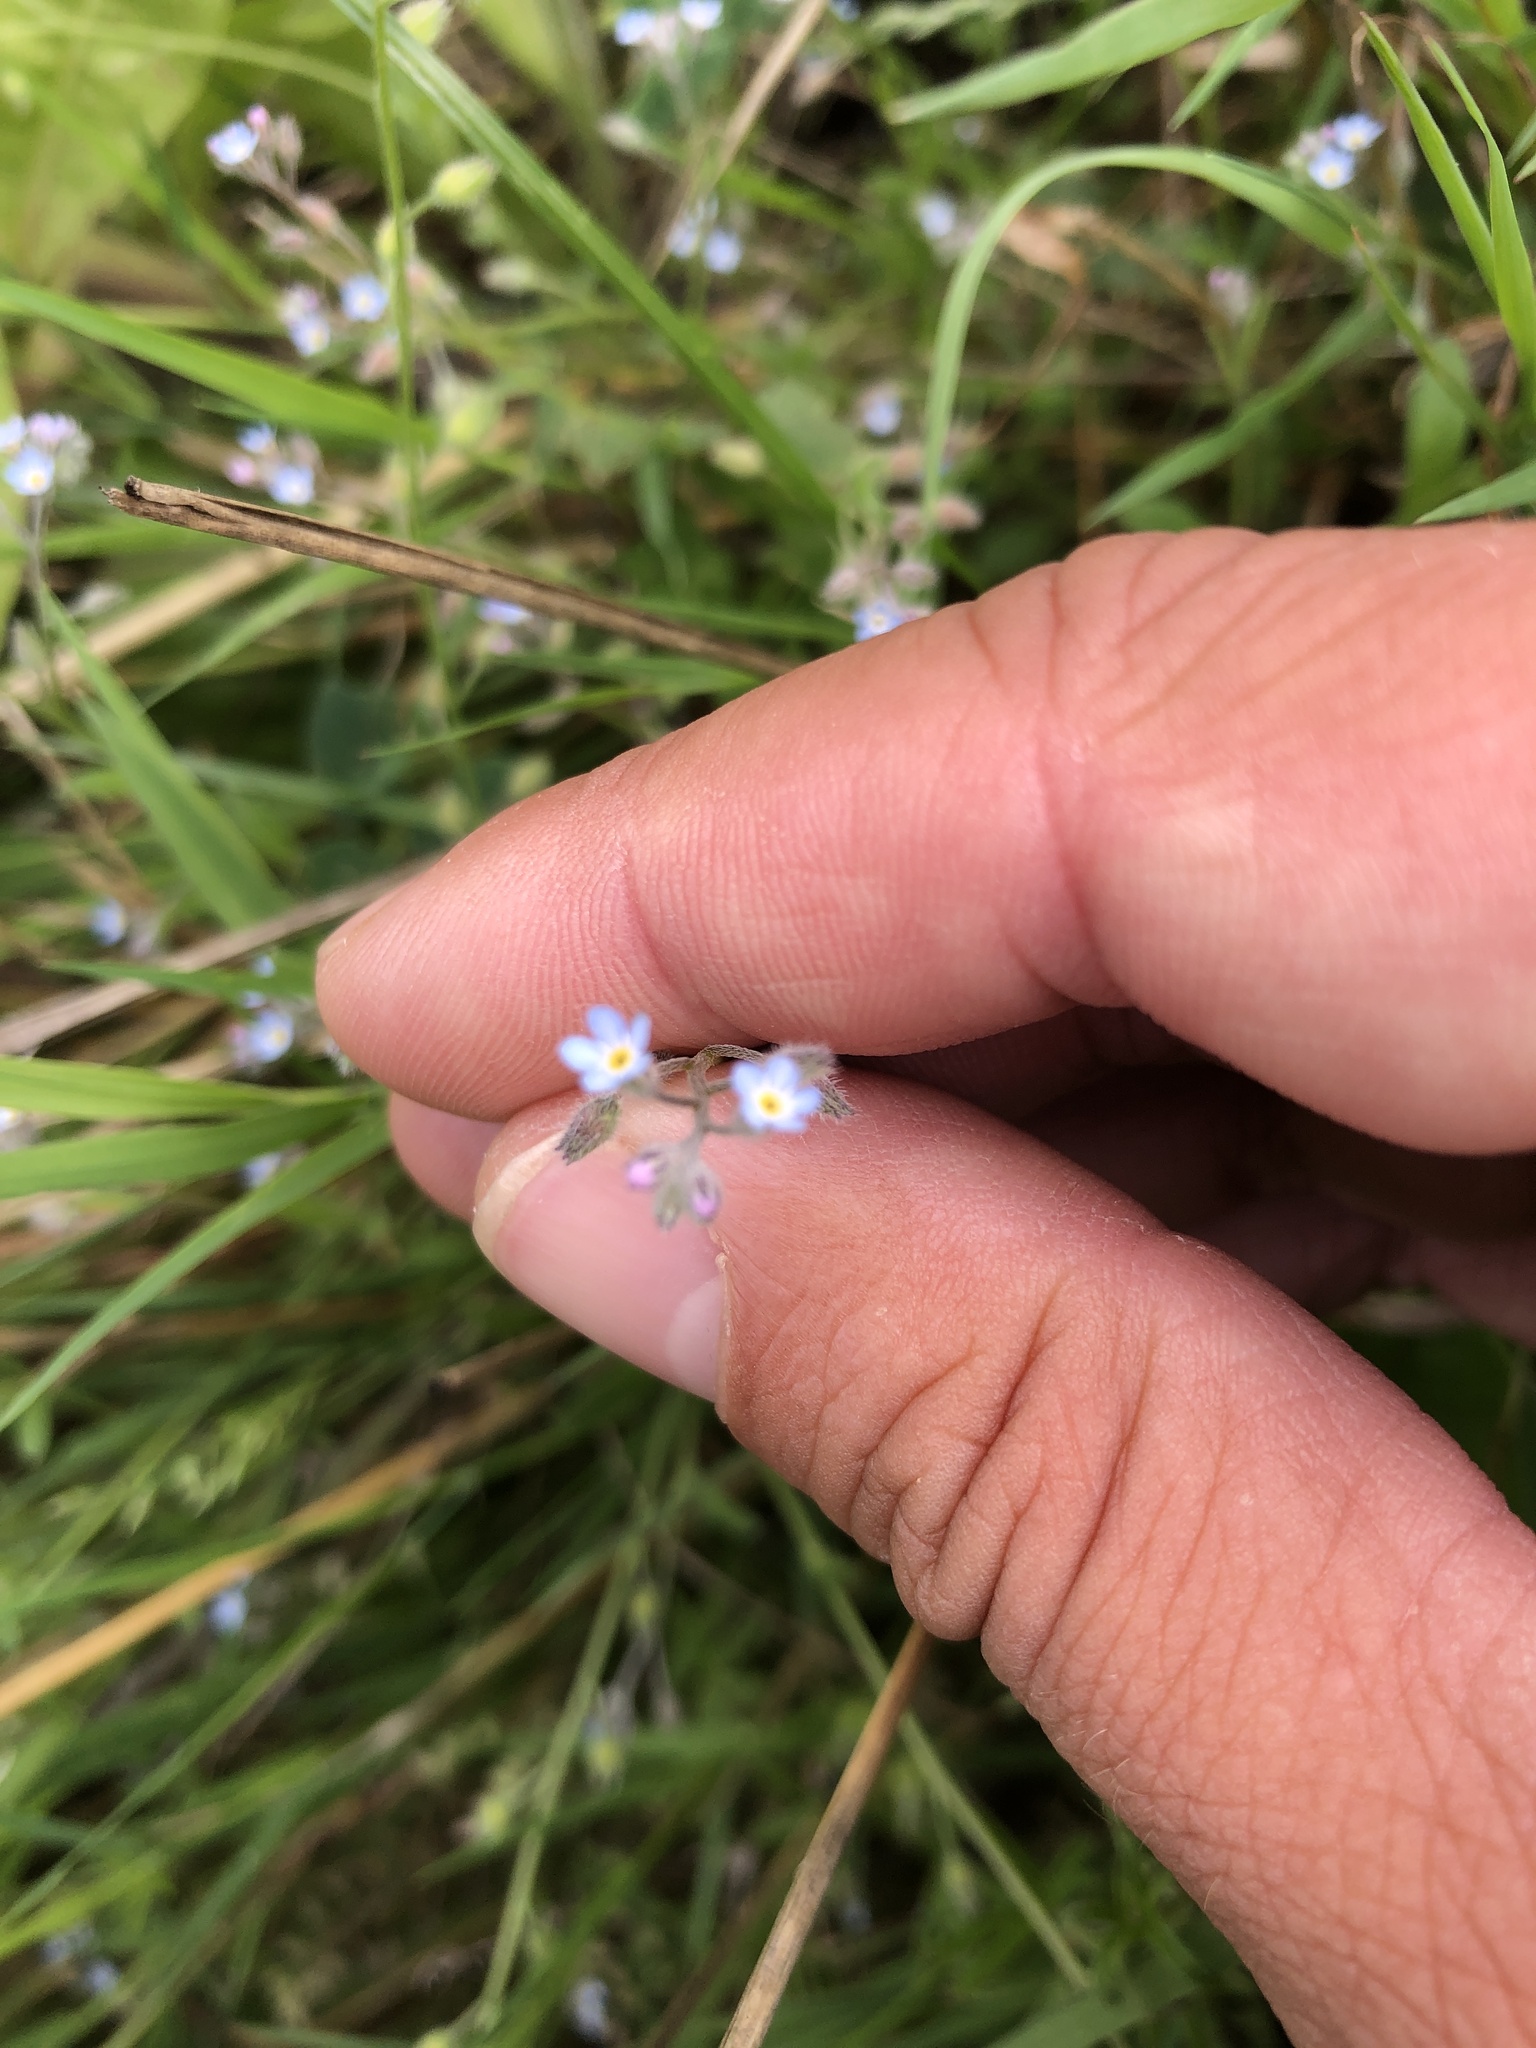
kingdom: Plantae
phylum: Tracheophyta
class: Magnoliopsida
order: Boraginales
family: Boraginaceae
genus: Myosotis
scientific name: Myosotis arvensis
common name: Field forget-me-not
